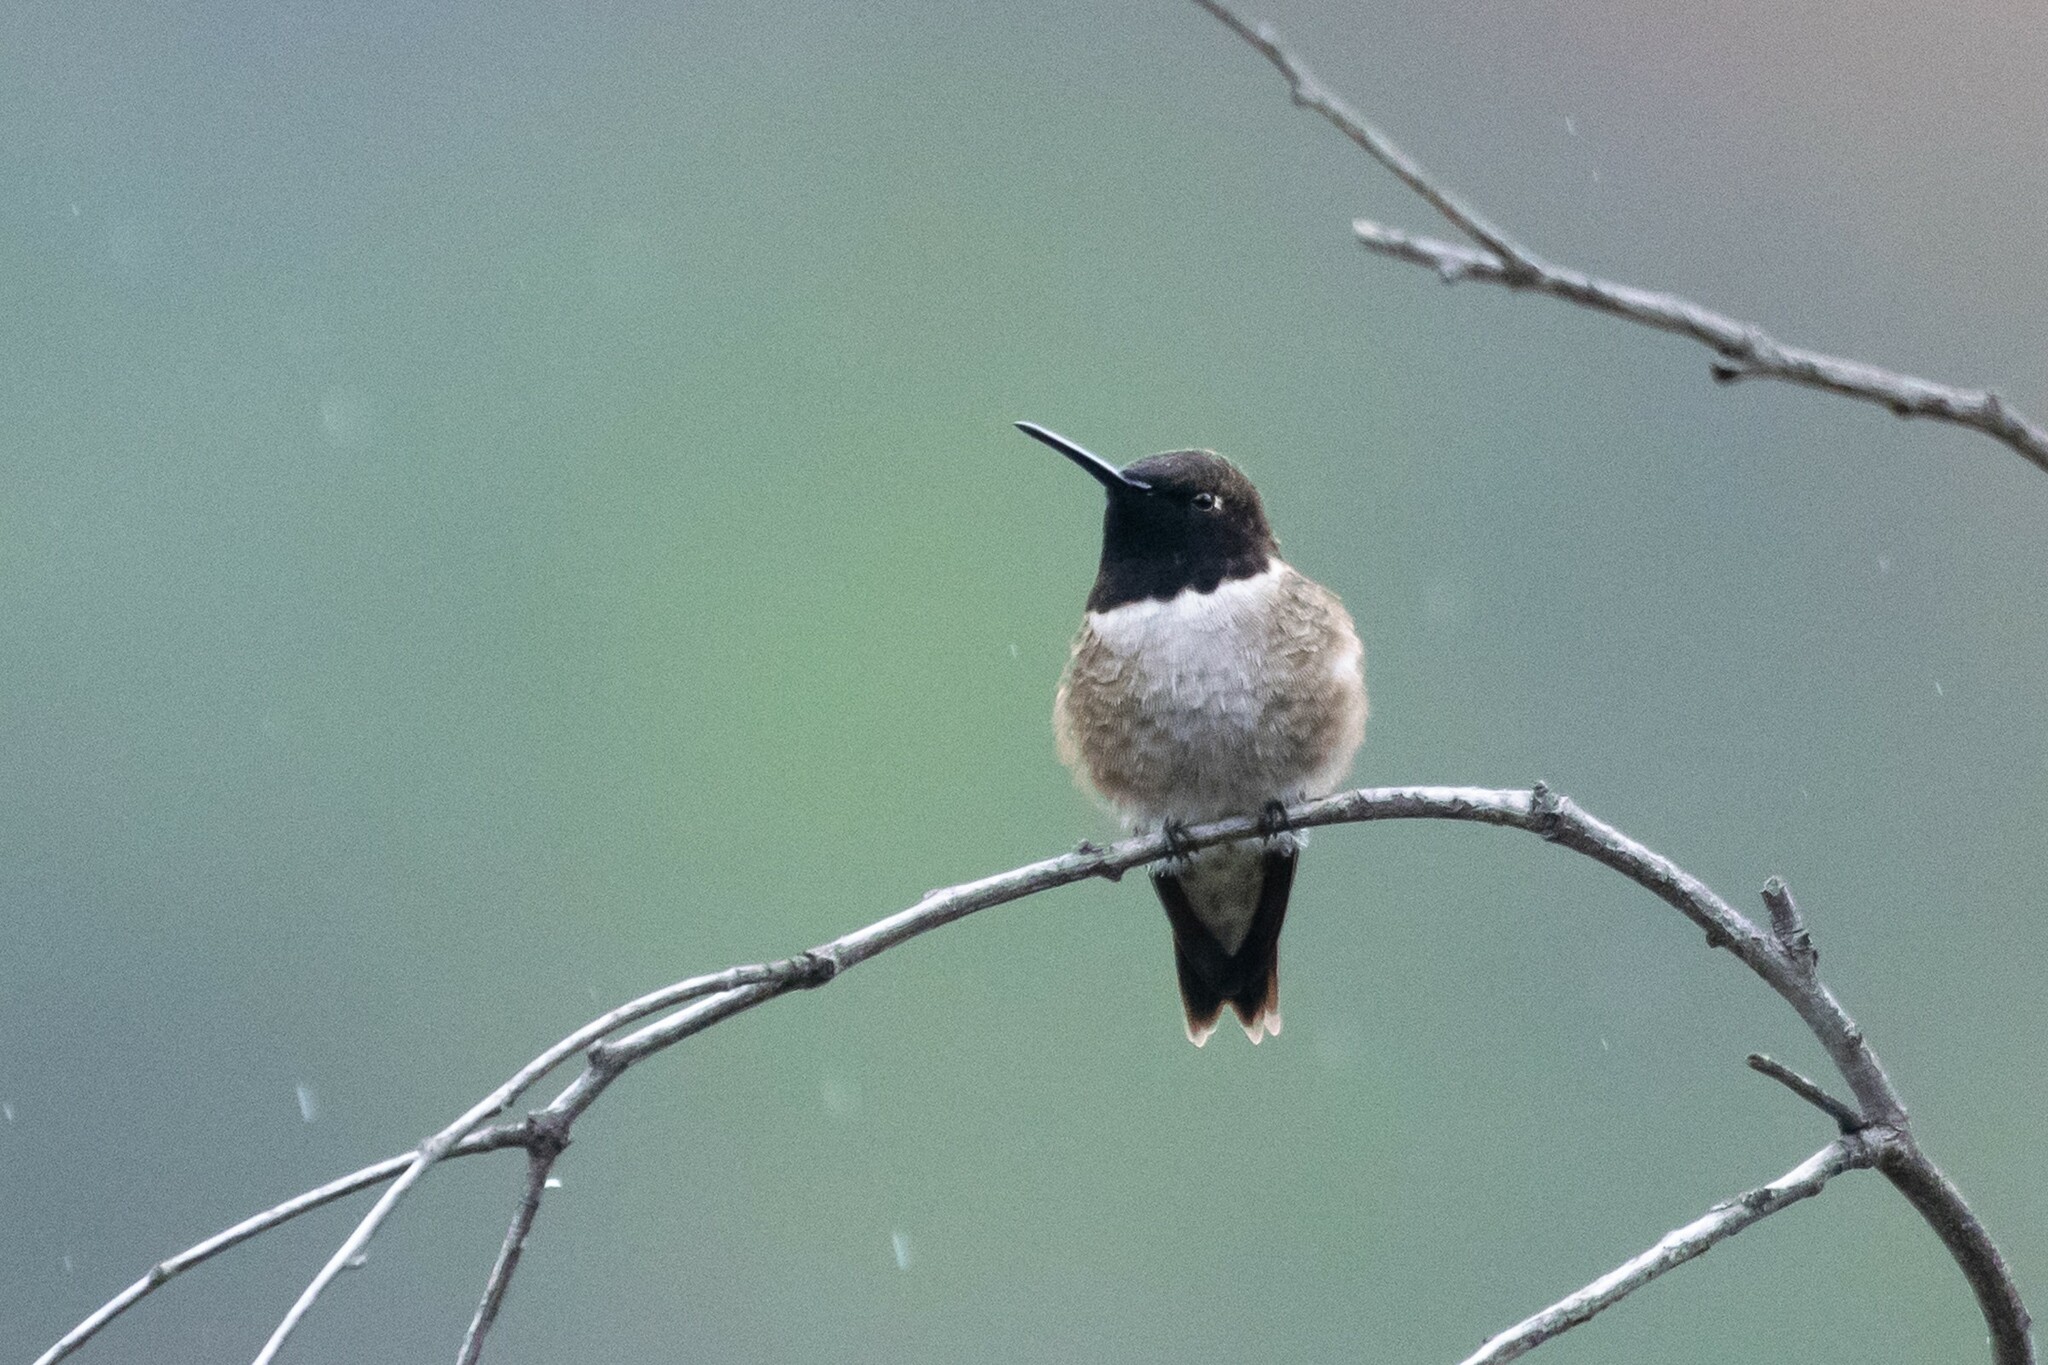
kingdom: Animalia
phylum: Chordata
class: Aves
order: Apodiformes
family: Trochilidae
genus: Archilochus
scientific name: Archilochus alexandri
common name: Black-chinned hummingbird
